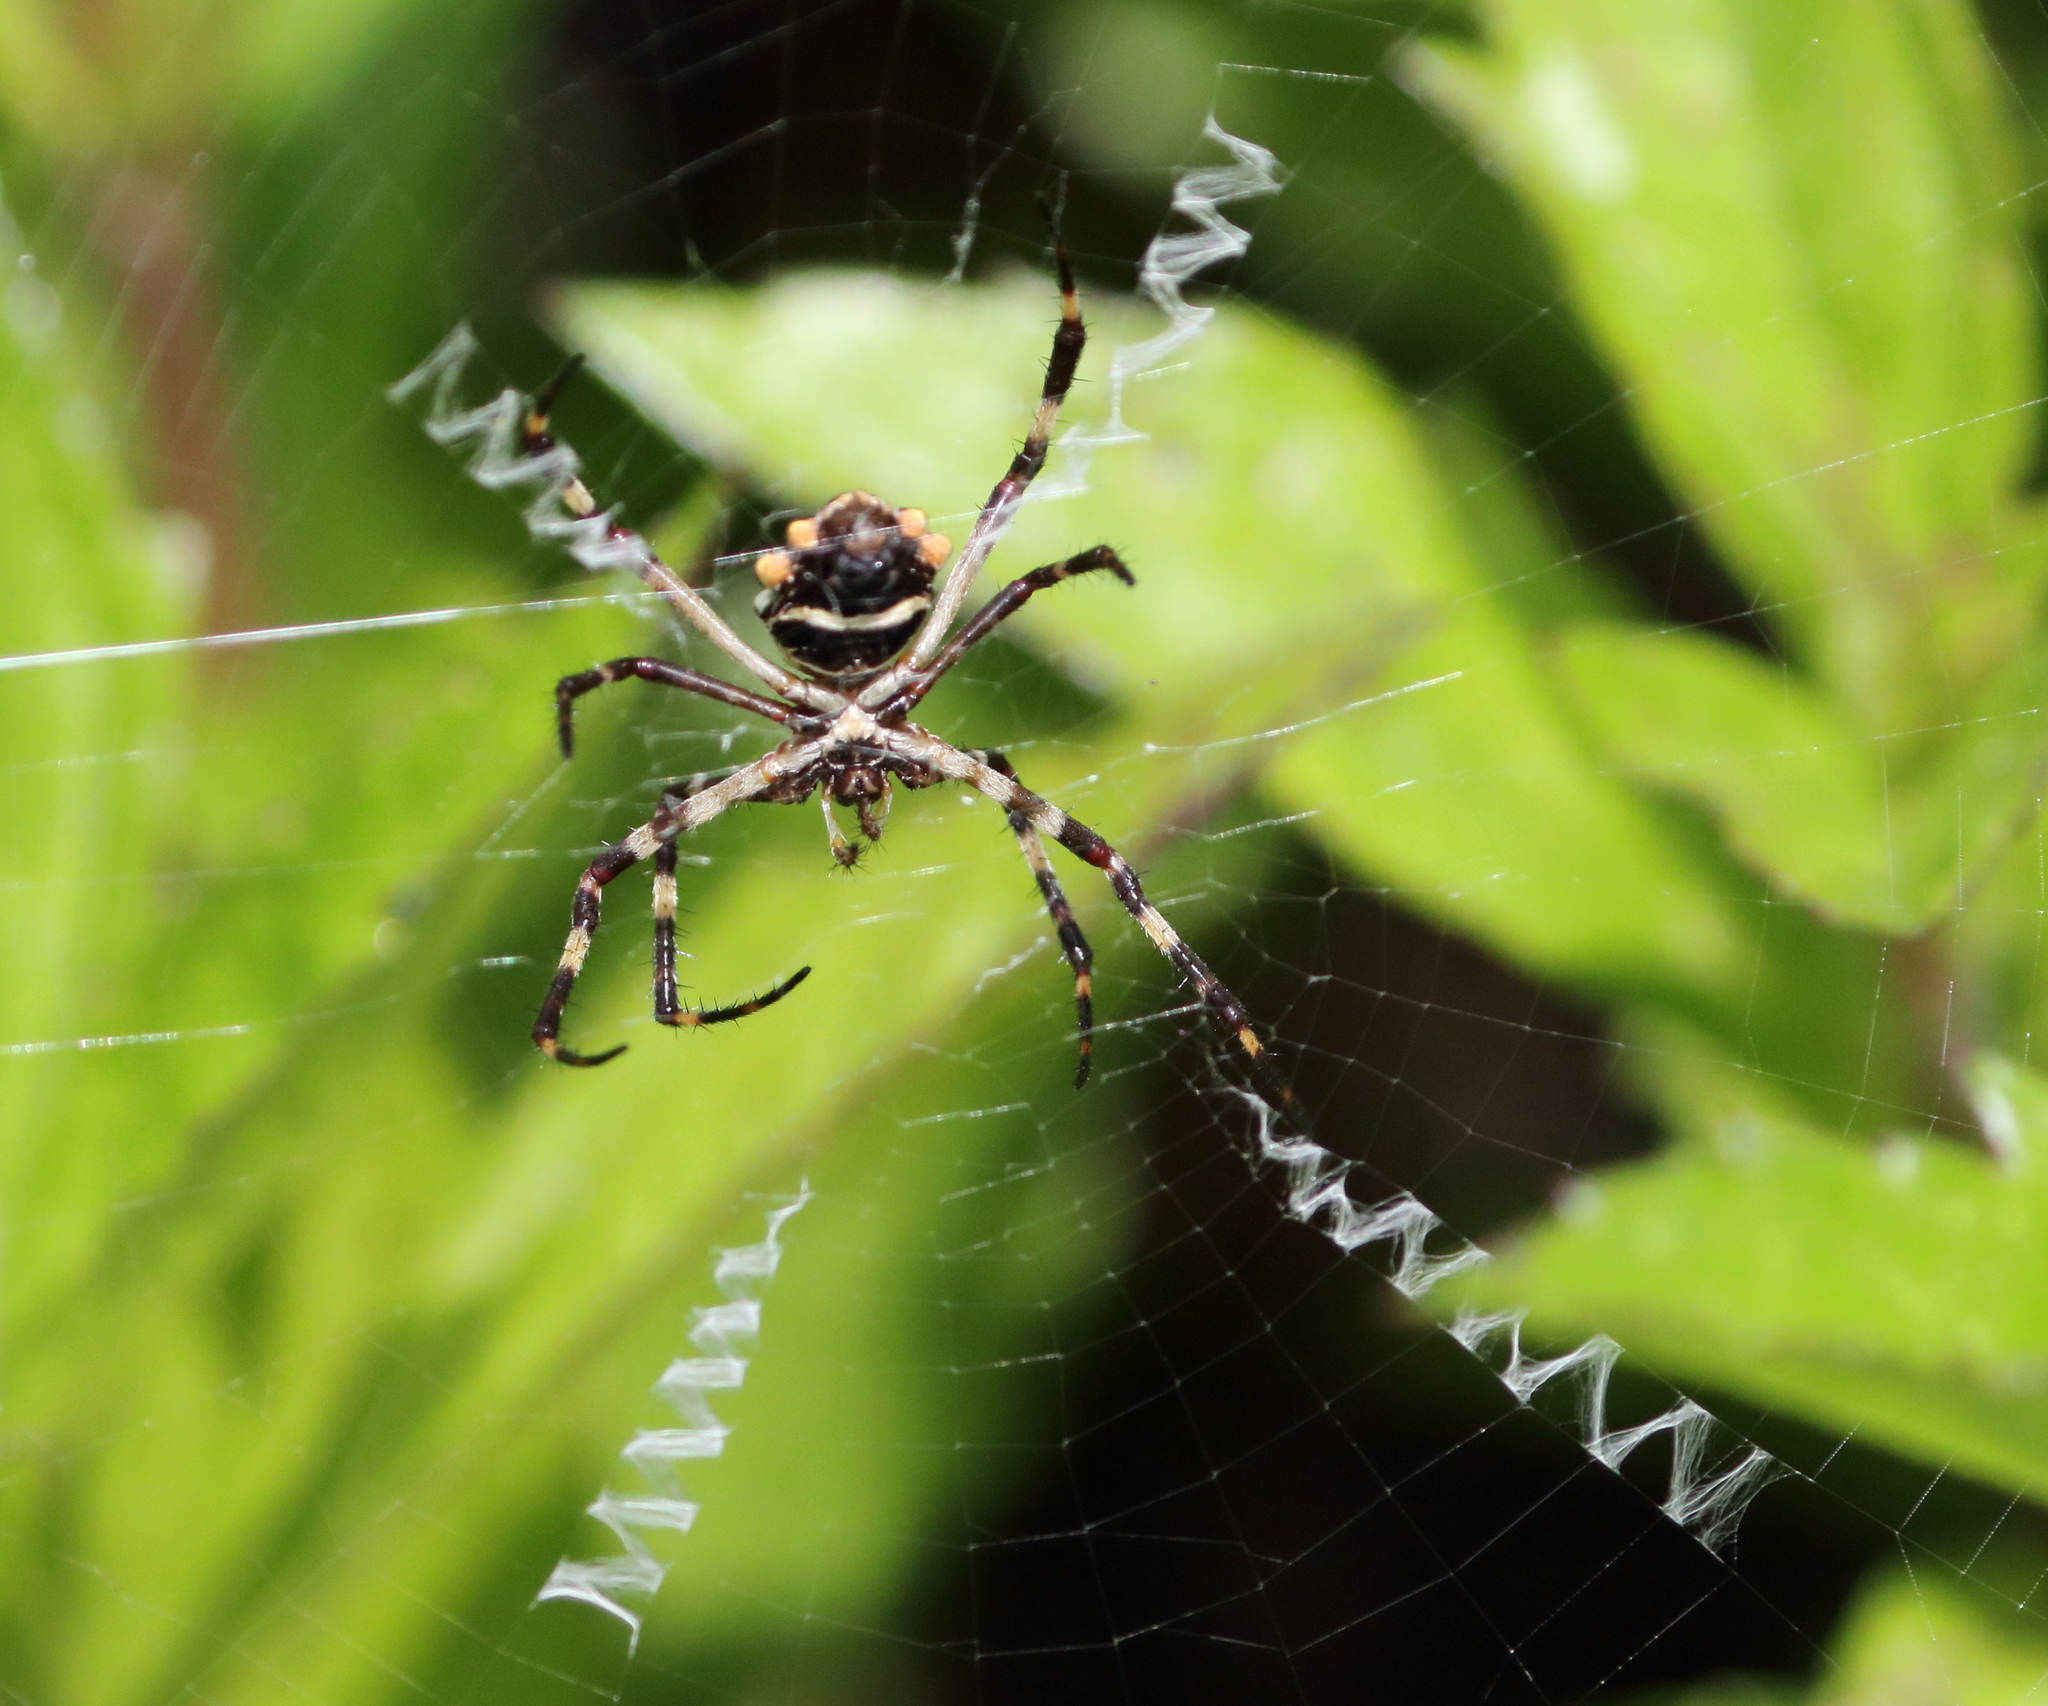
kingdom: Animalia
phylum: Arthropoda
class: Arachnida
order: Araneae
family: Araneidae
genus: Argiope
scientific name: Argiope argentata
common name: Orb weavers
